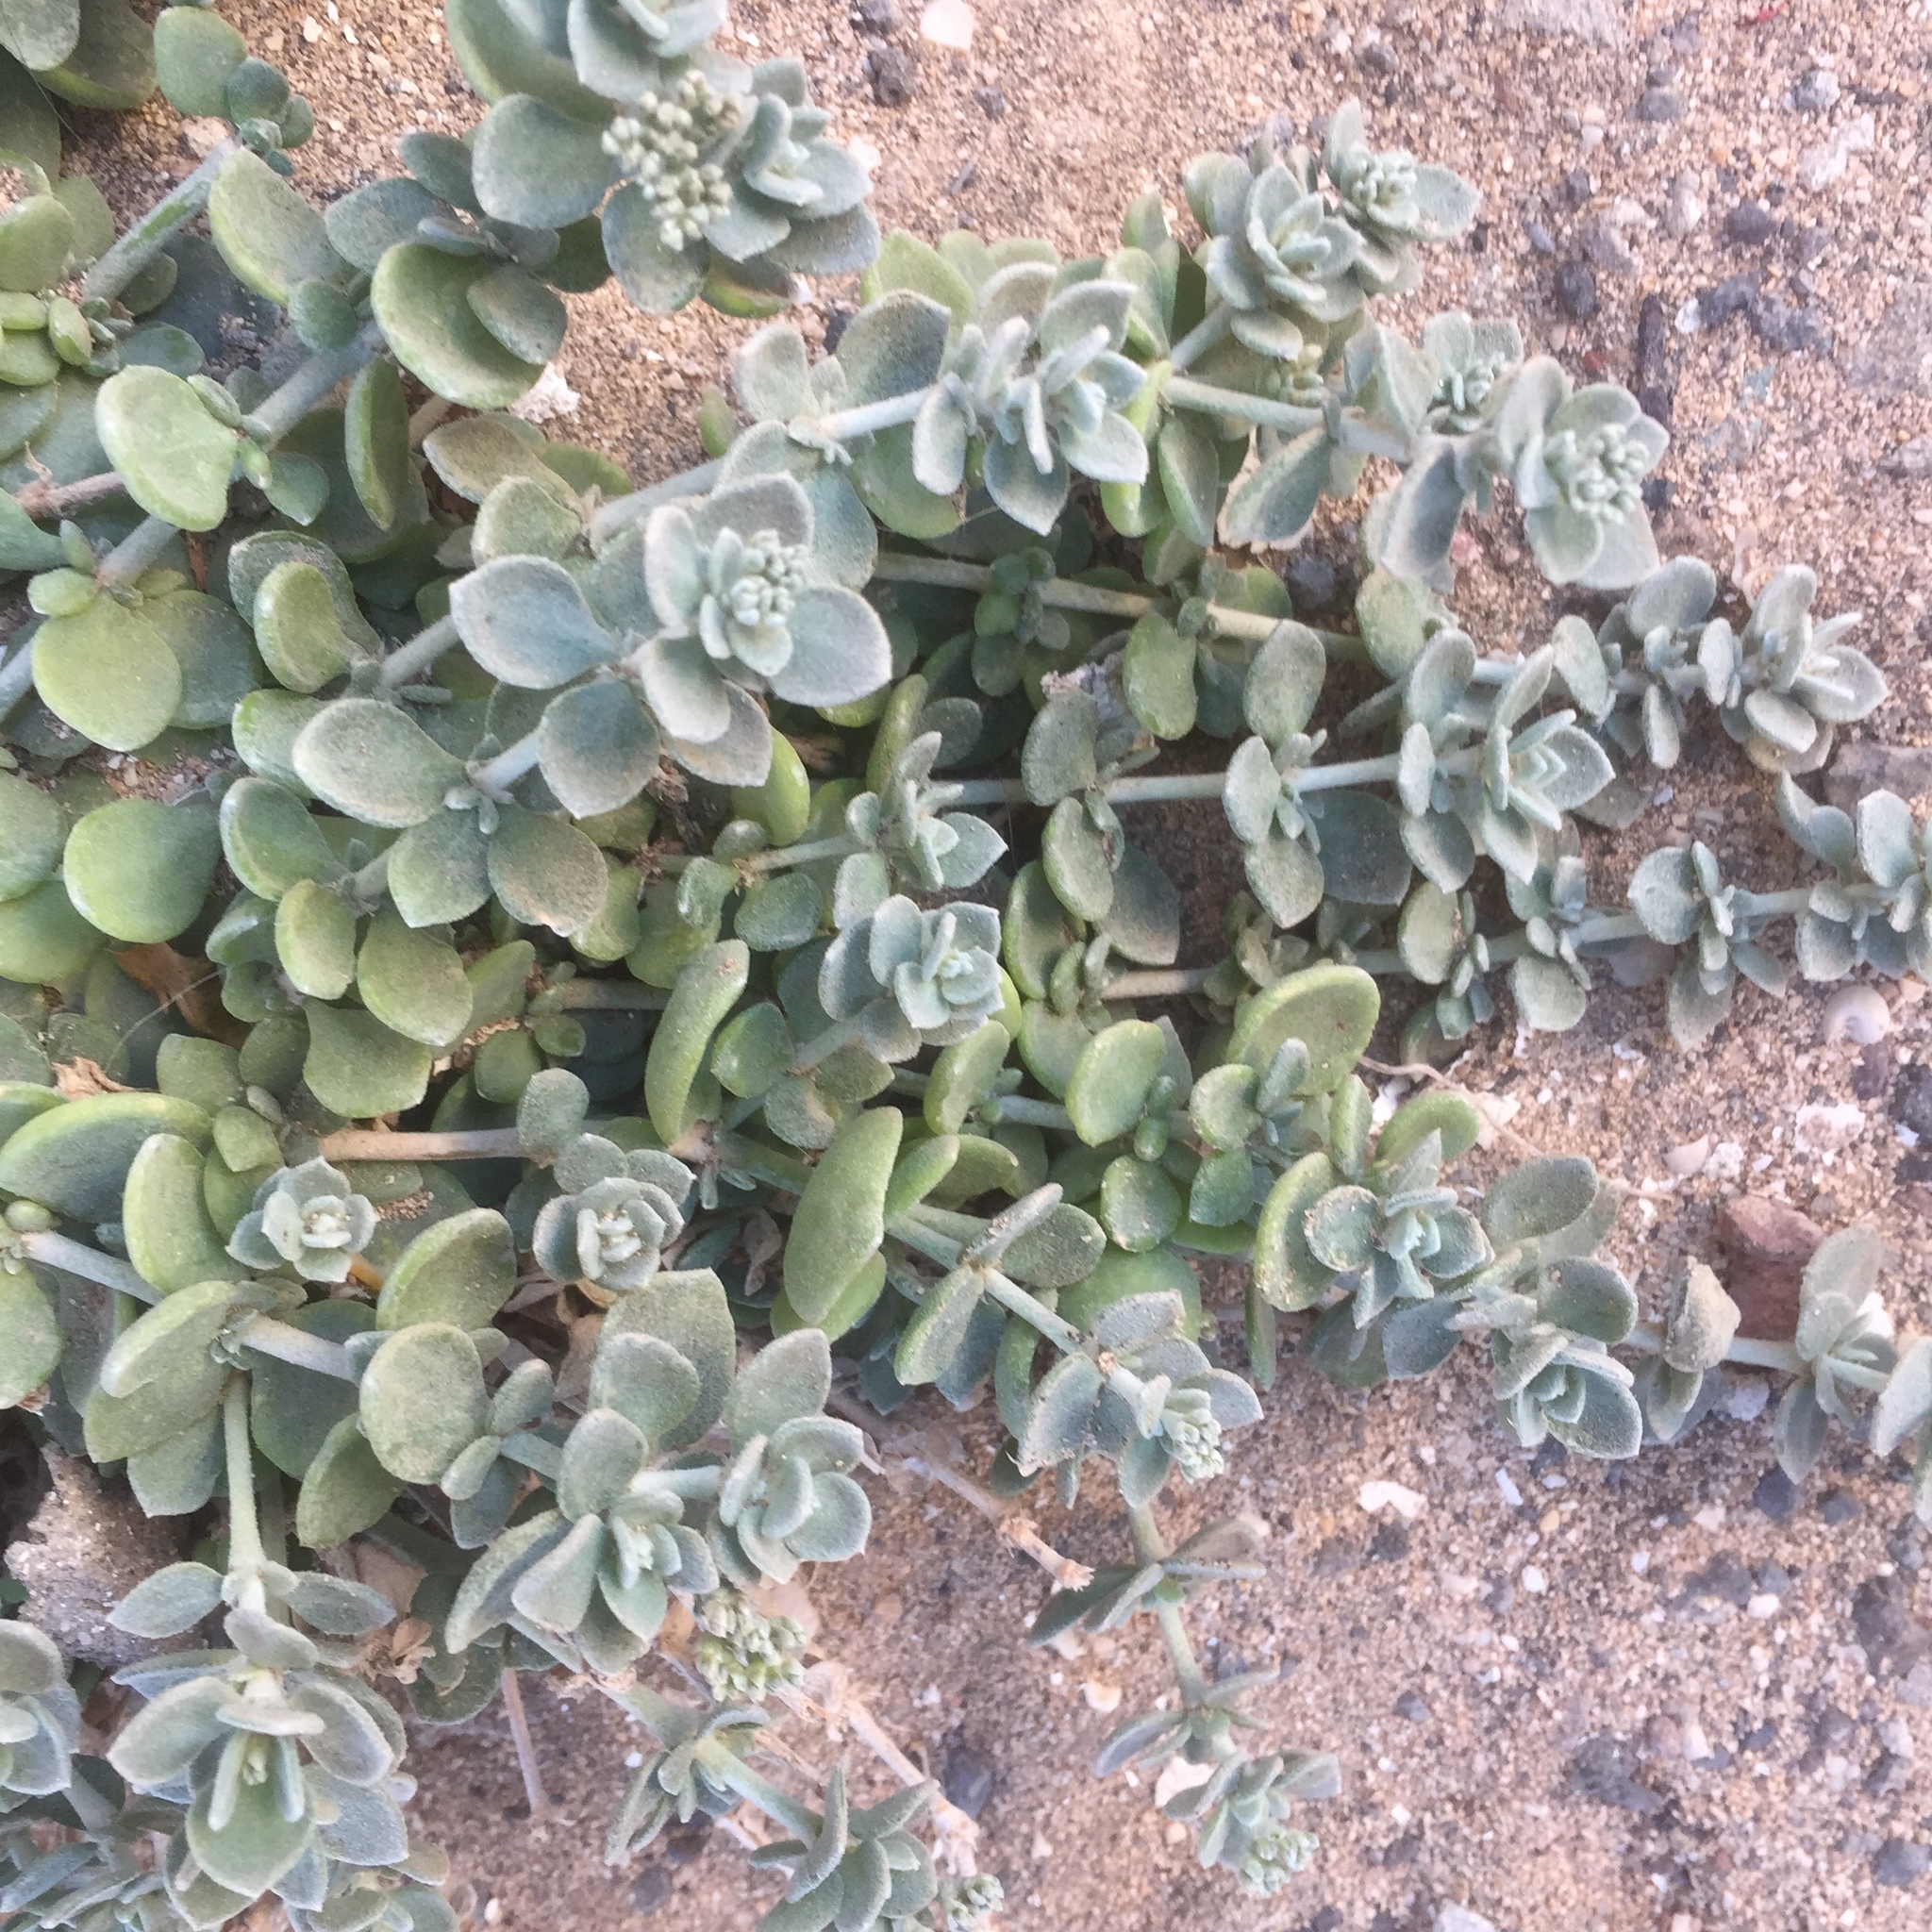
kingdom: Plantae
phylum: Tracheophyta
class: Magnoliopsida
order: Caryophyllales
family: Caryophyllaceae
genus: Polycarpaea
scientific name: Polycarpaea nivea
